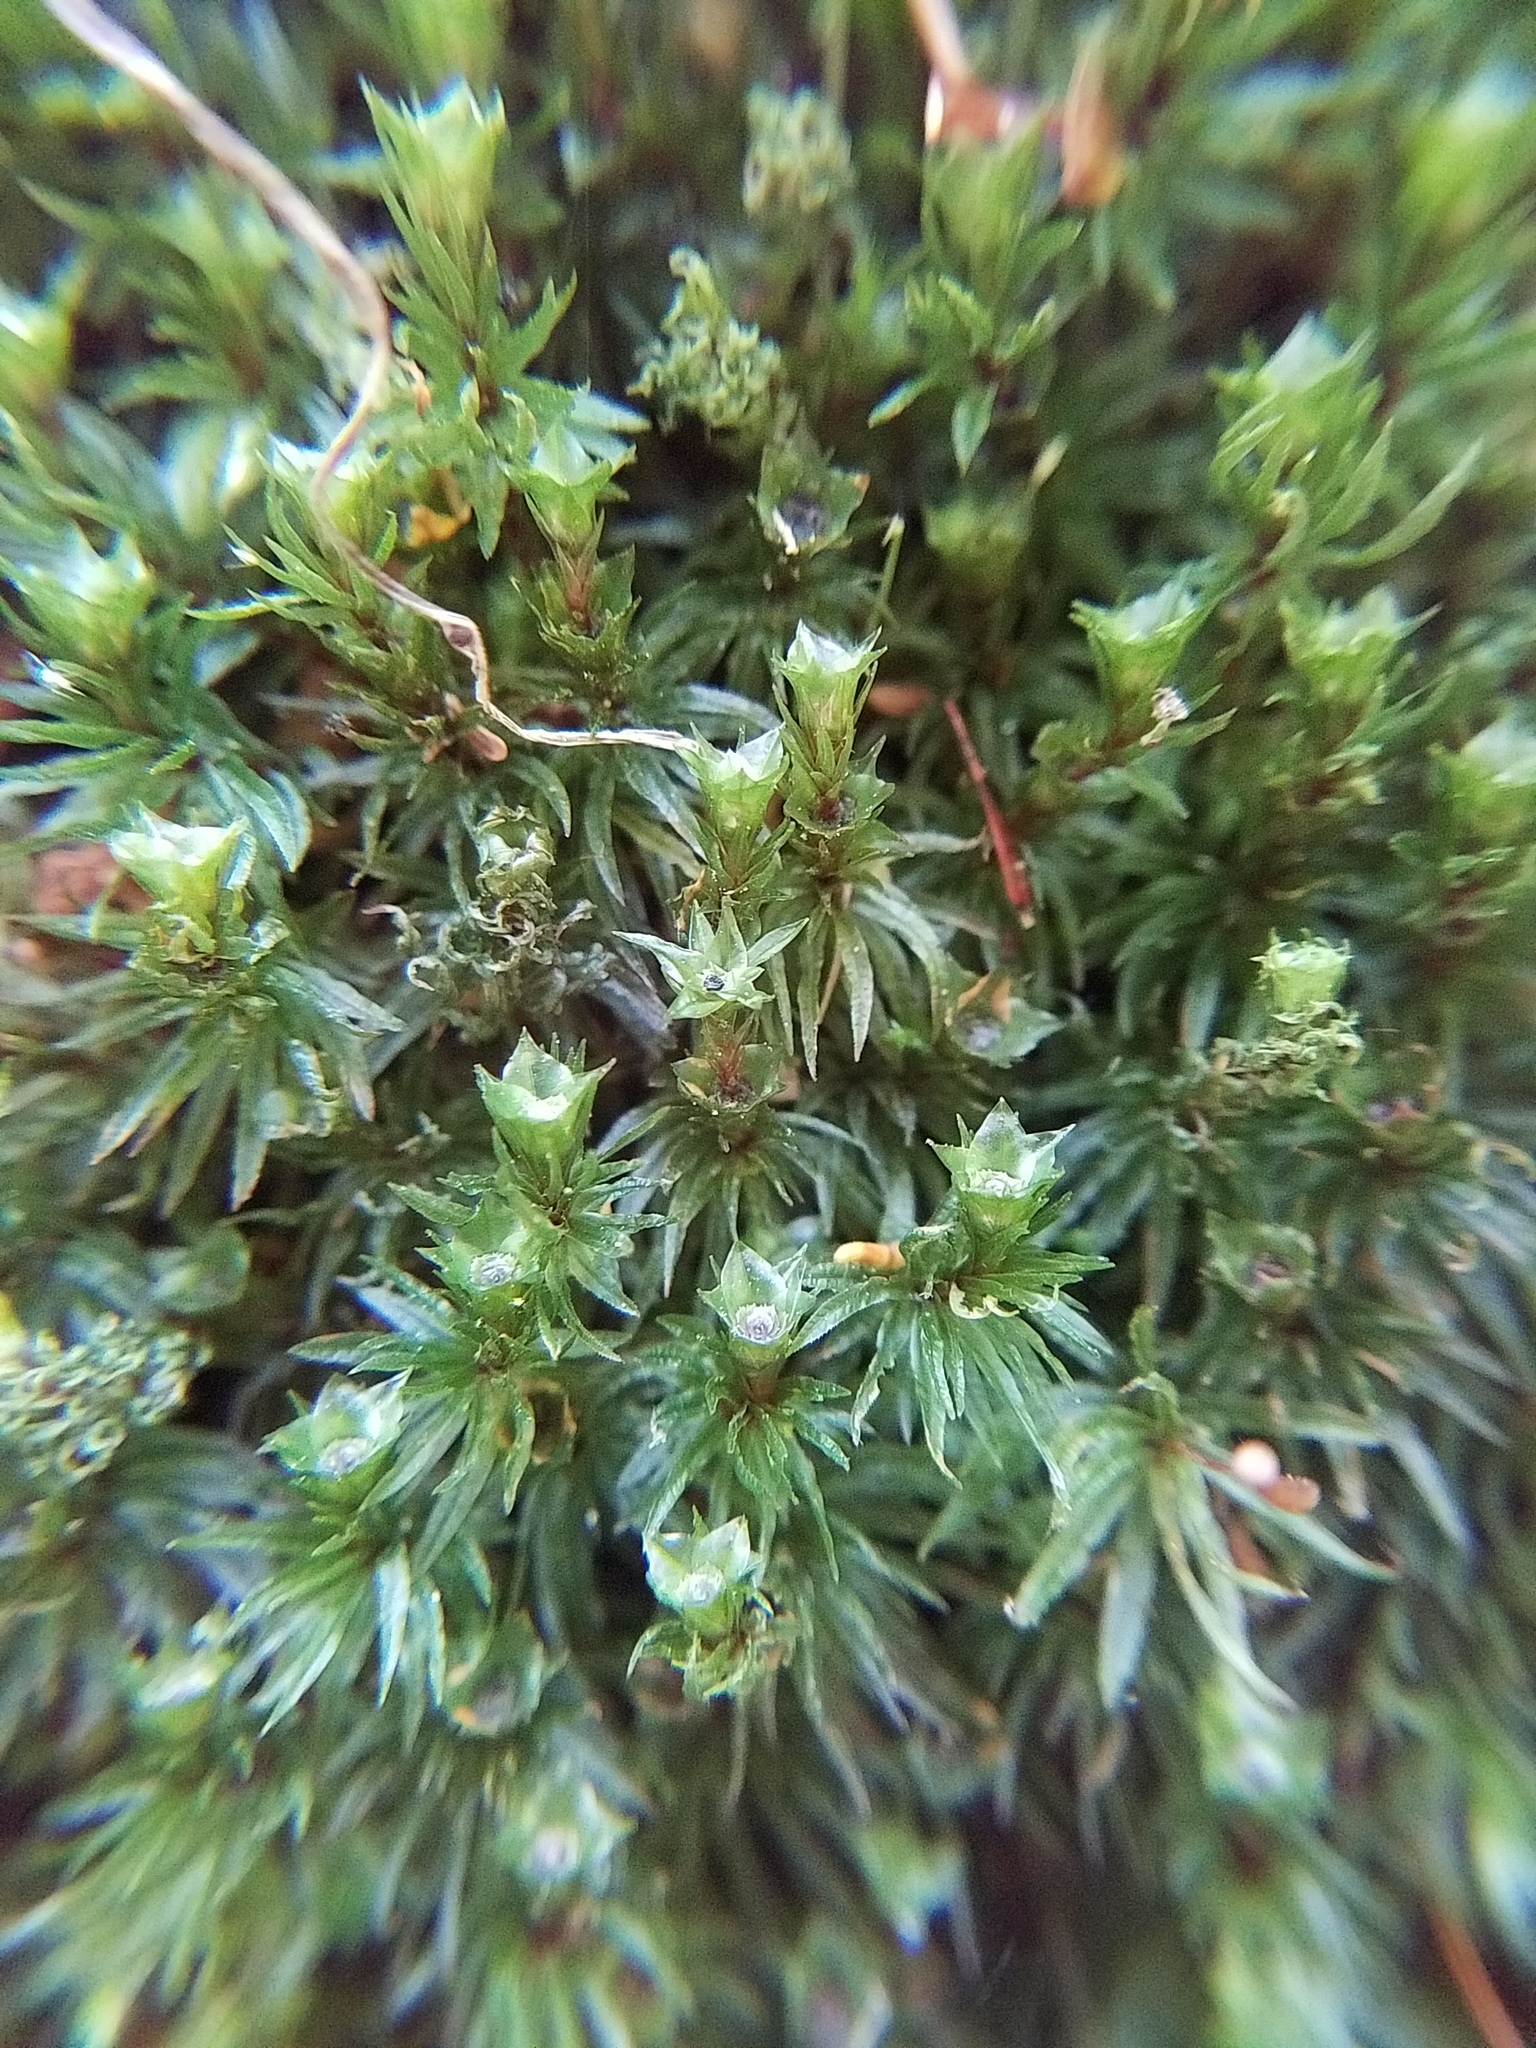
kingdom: Plantae
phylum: Bryophyta
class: Polytrichopsida
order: Polytrichales
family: Polytrichaceae
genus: Atrichum
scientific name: Atrichum angustatum
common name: Lesser smoothcap
